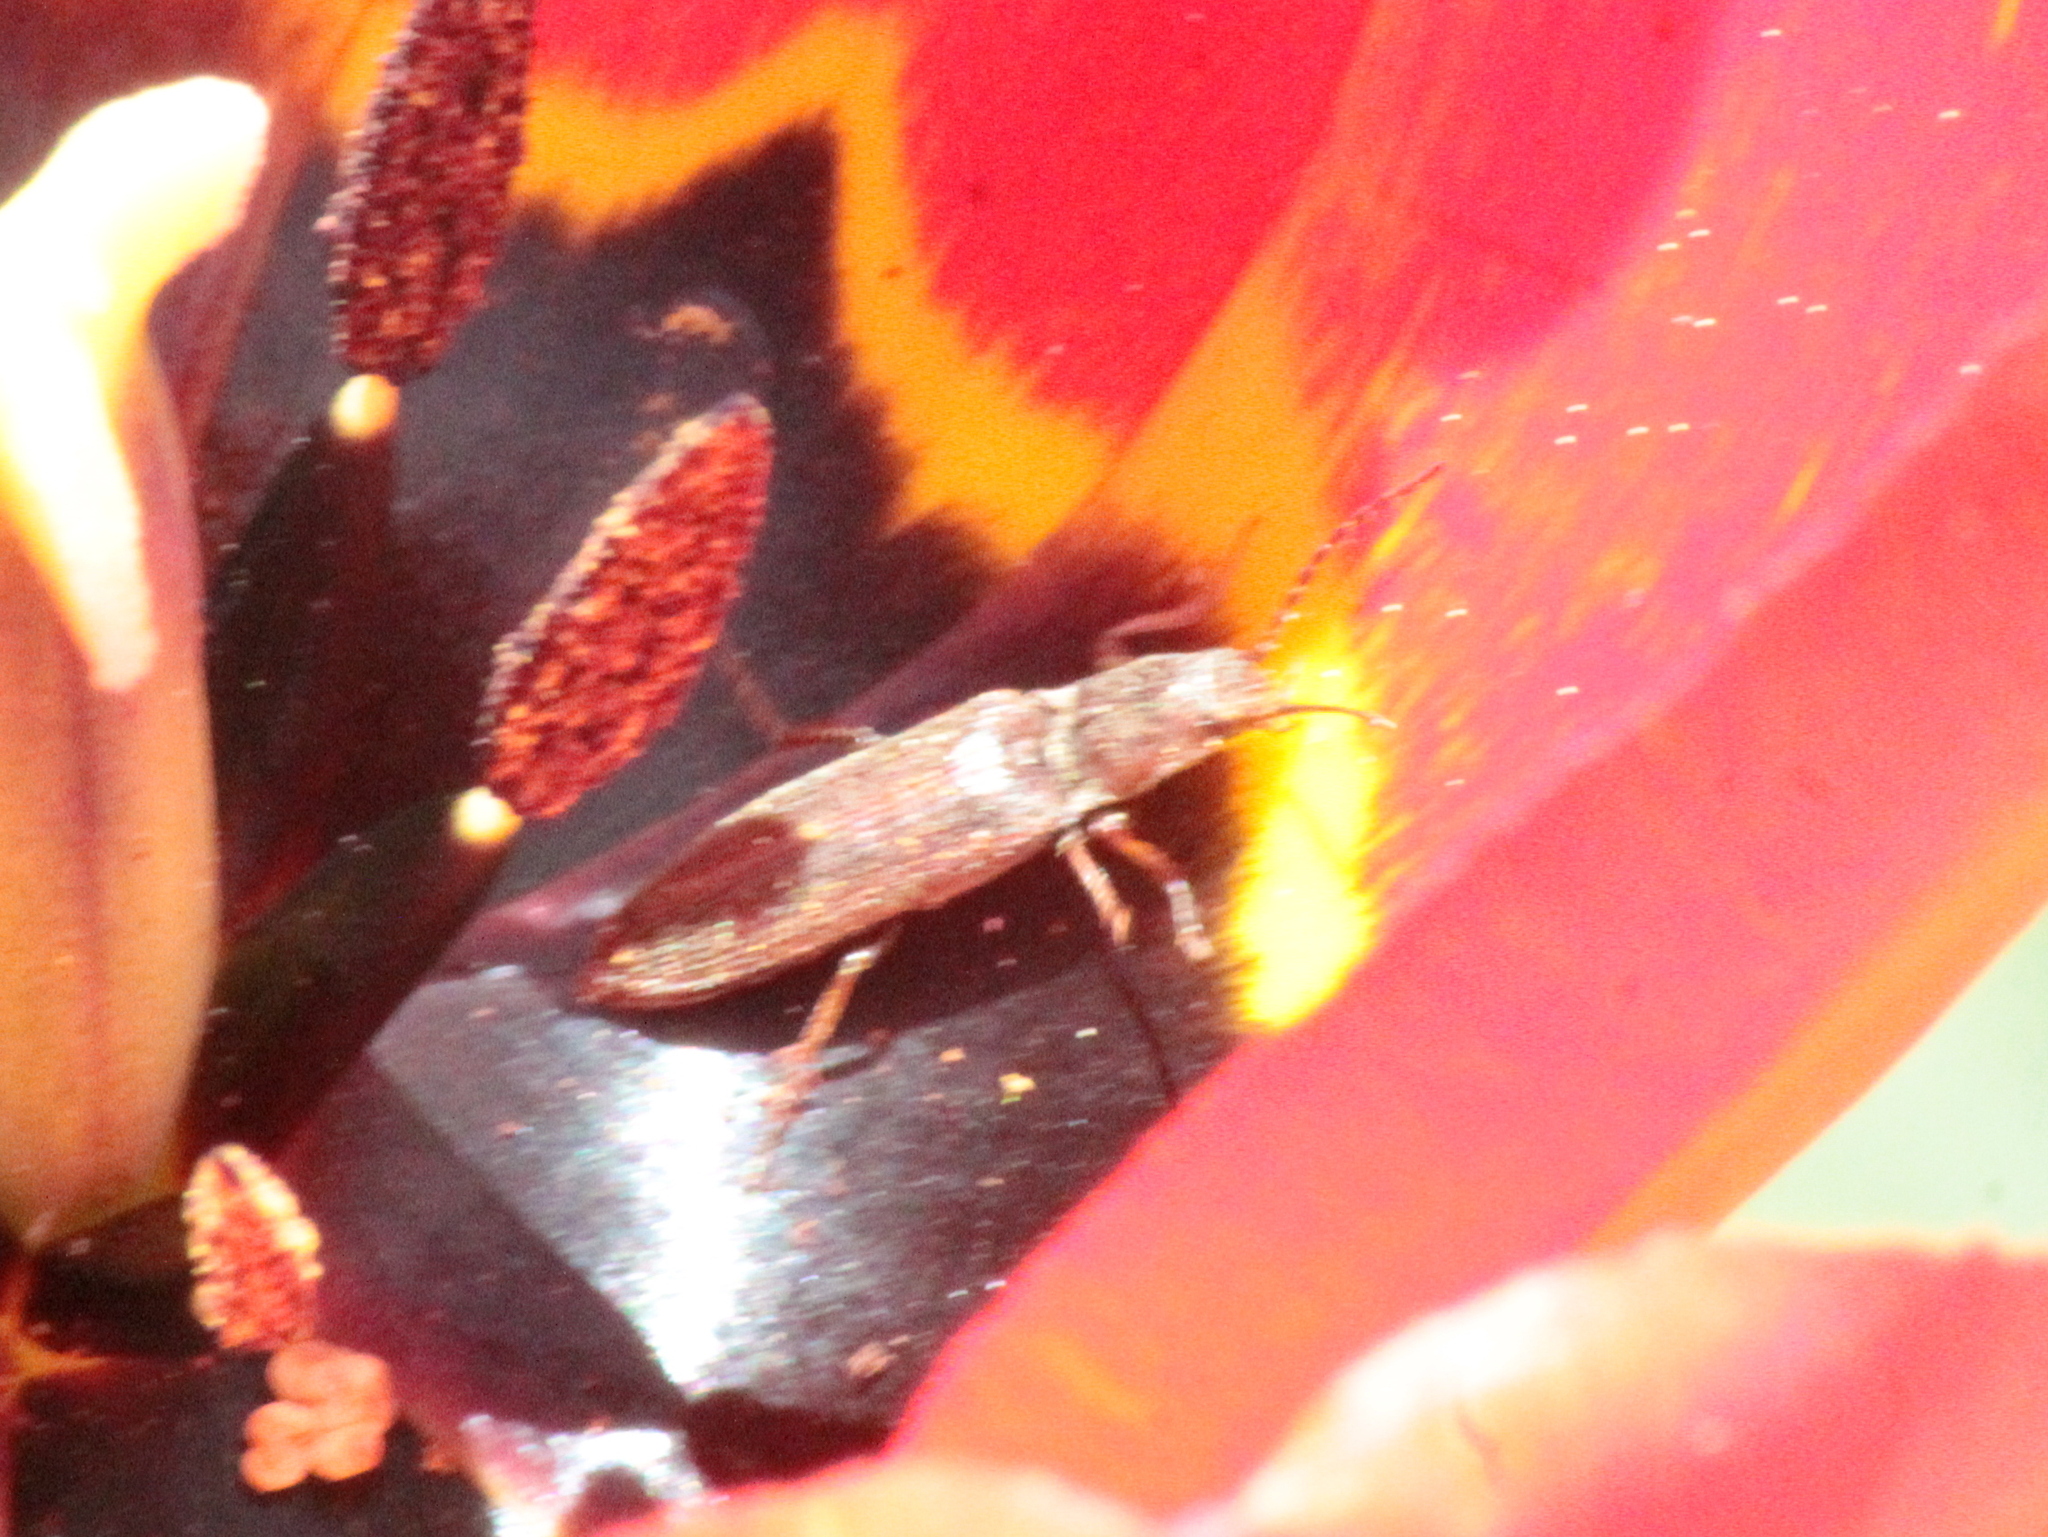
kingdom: Animalia
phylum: Arthropoda
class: Insecta
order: Coleoptera
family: Elateridae
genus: Sylvanelater
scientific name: Sylvanelater cylindriformis
